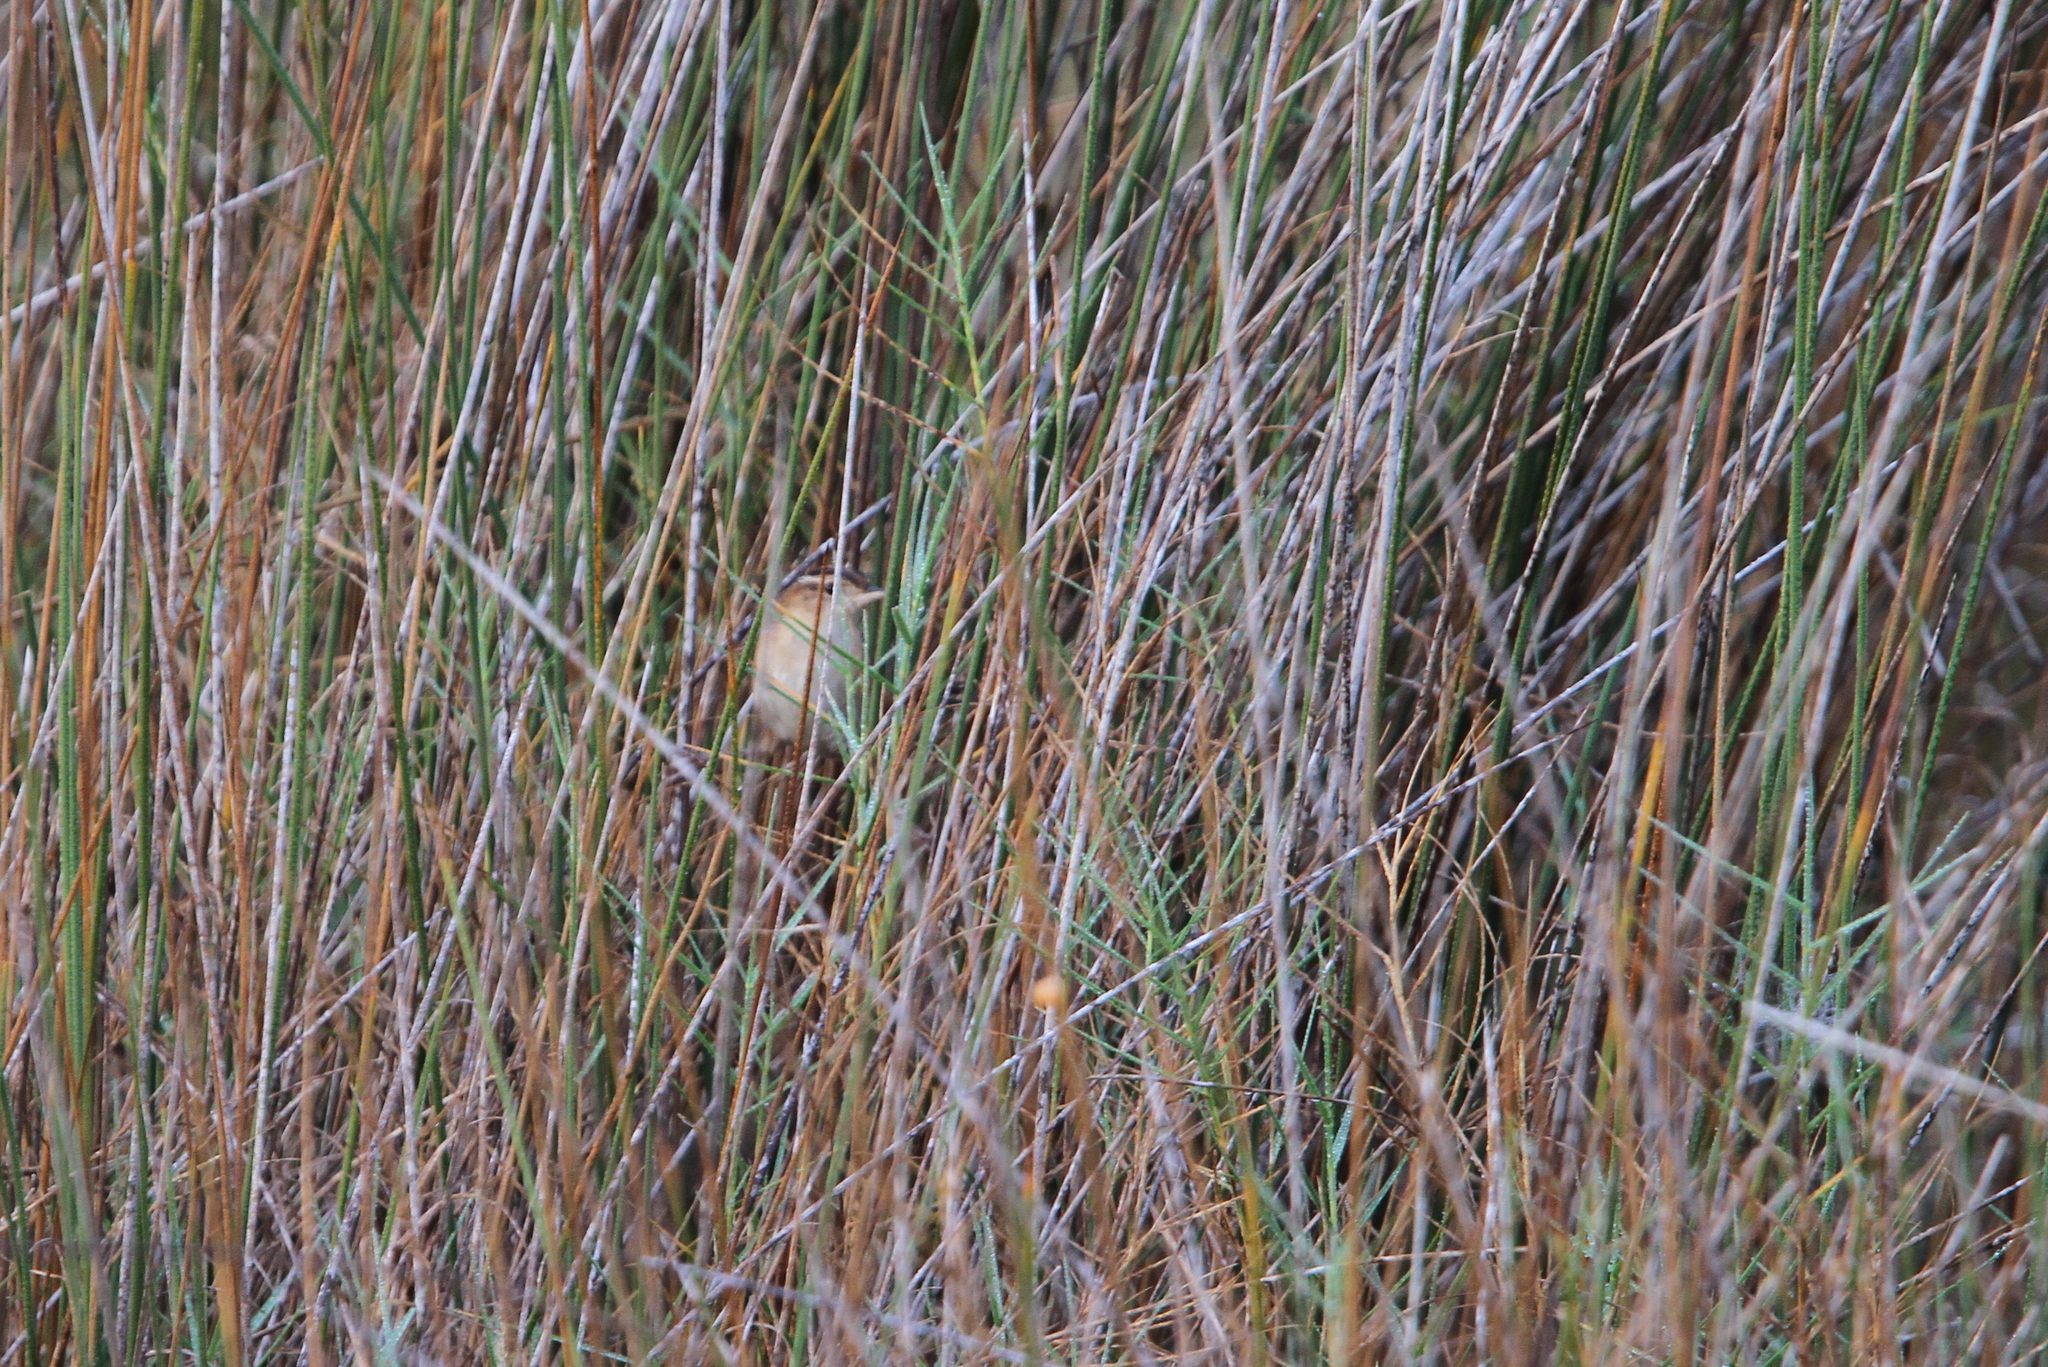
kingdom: Animalia
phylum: Chordata
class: Aves
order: Passeriformes
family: Troglodytidae
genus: Cistothorus
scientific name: Cistothorus palustris
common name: Marsh wren
